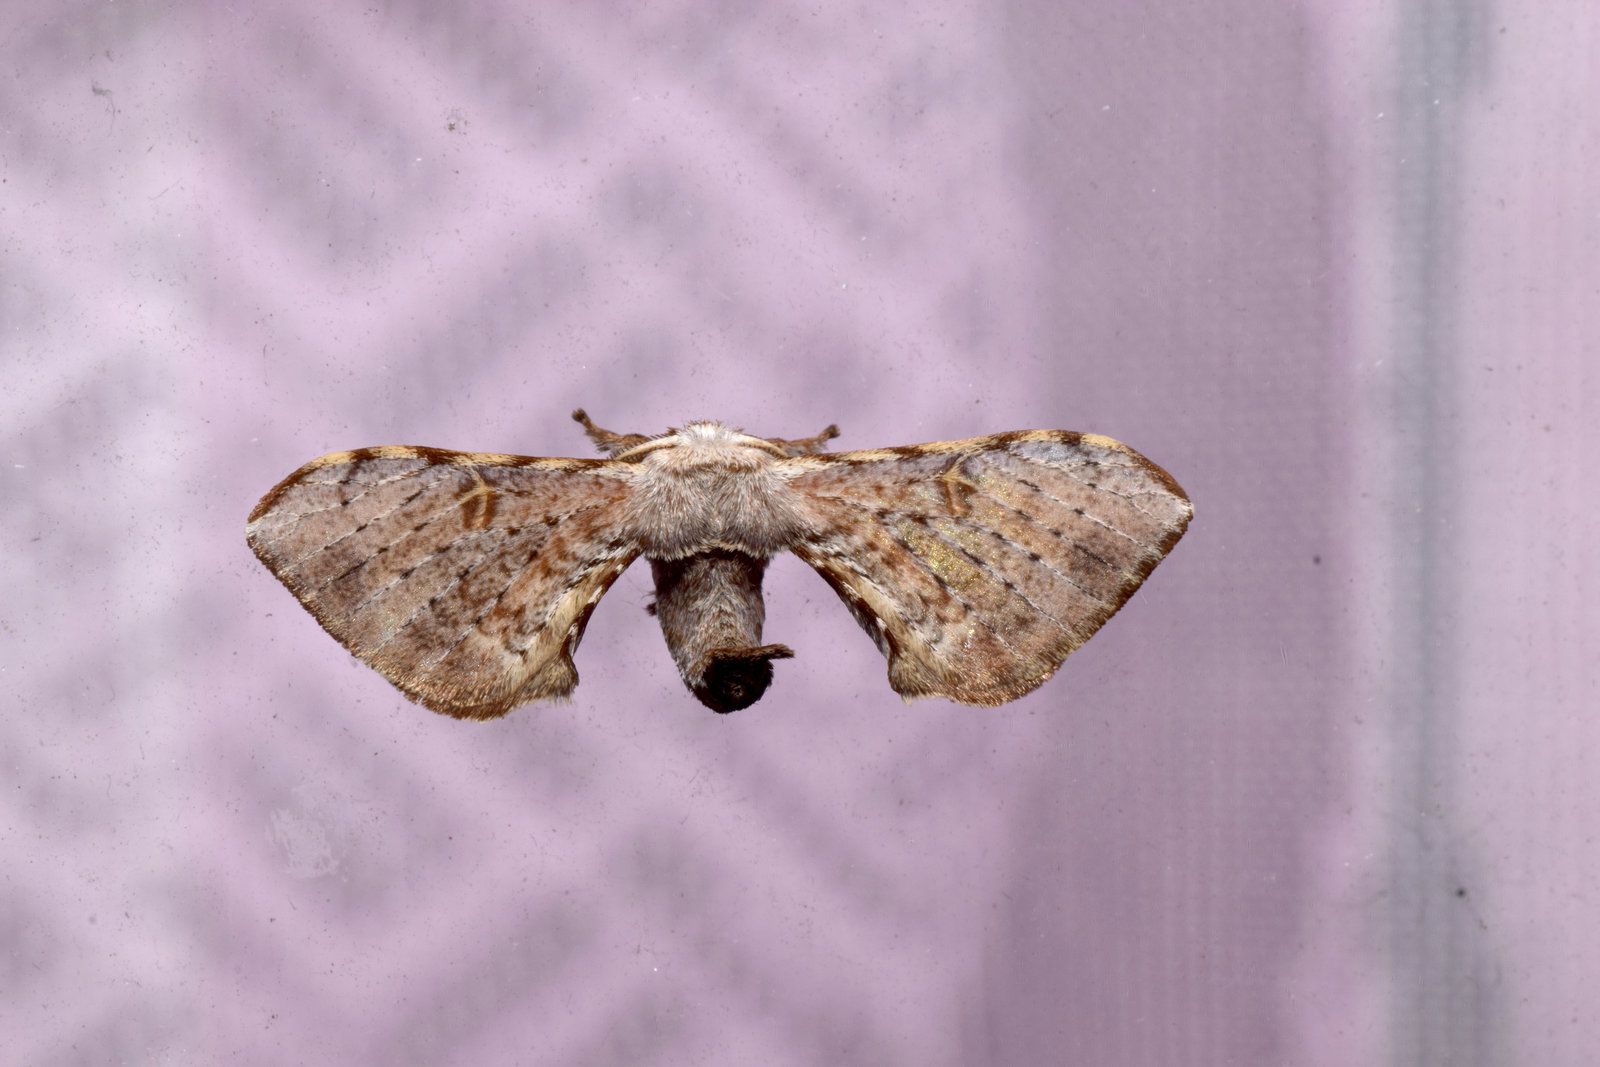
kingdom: Animalia
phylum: Arthropoda
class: Insecta
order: Lepidoptera
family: Bombycidae
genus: Ocinara
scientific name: Ocinara albicollis
